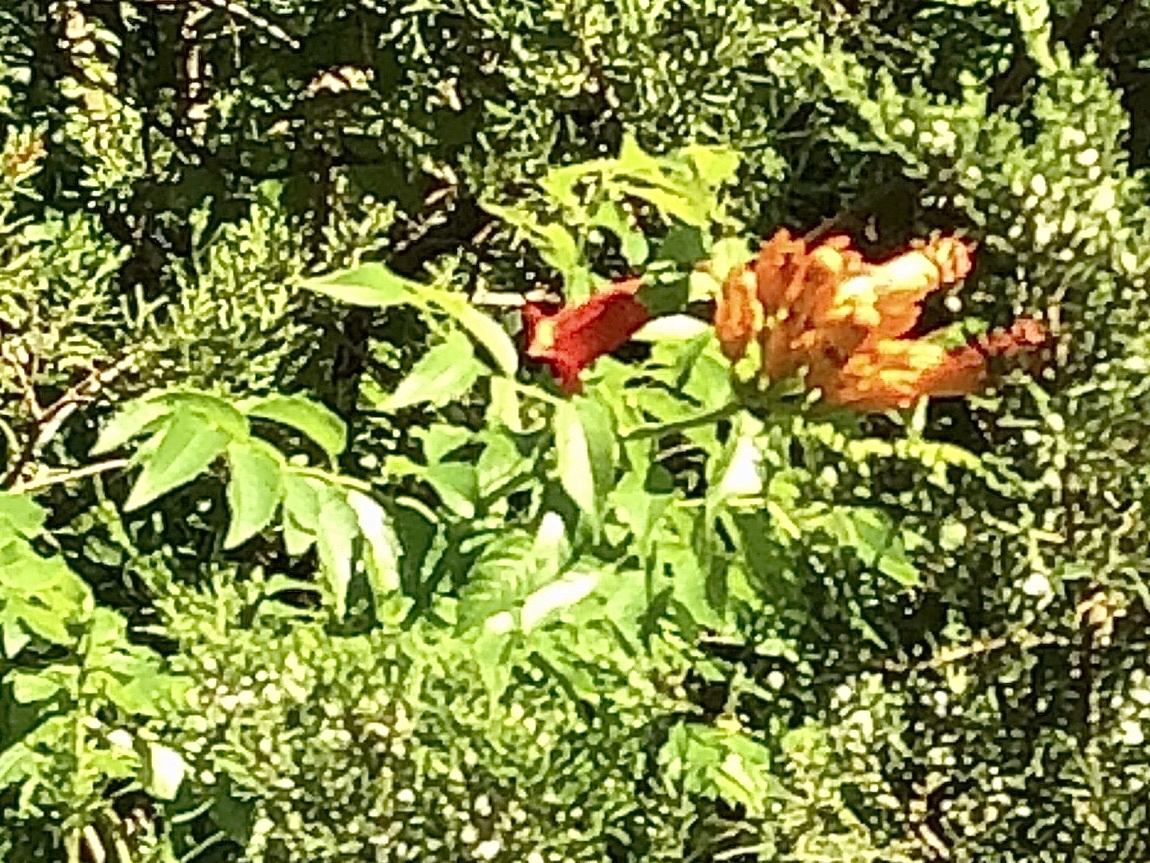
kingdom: Plantae
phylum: Tracheophyta
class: Magnoliopsida
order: Lamiales
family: Bignoniaceae
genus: Campsis
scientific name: Campsis radicans
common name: Trumpet-creeper
